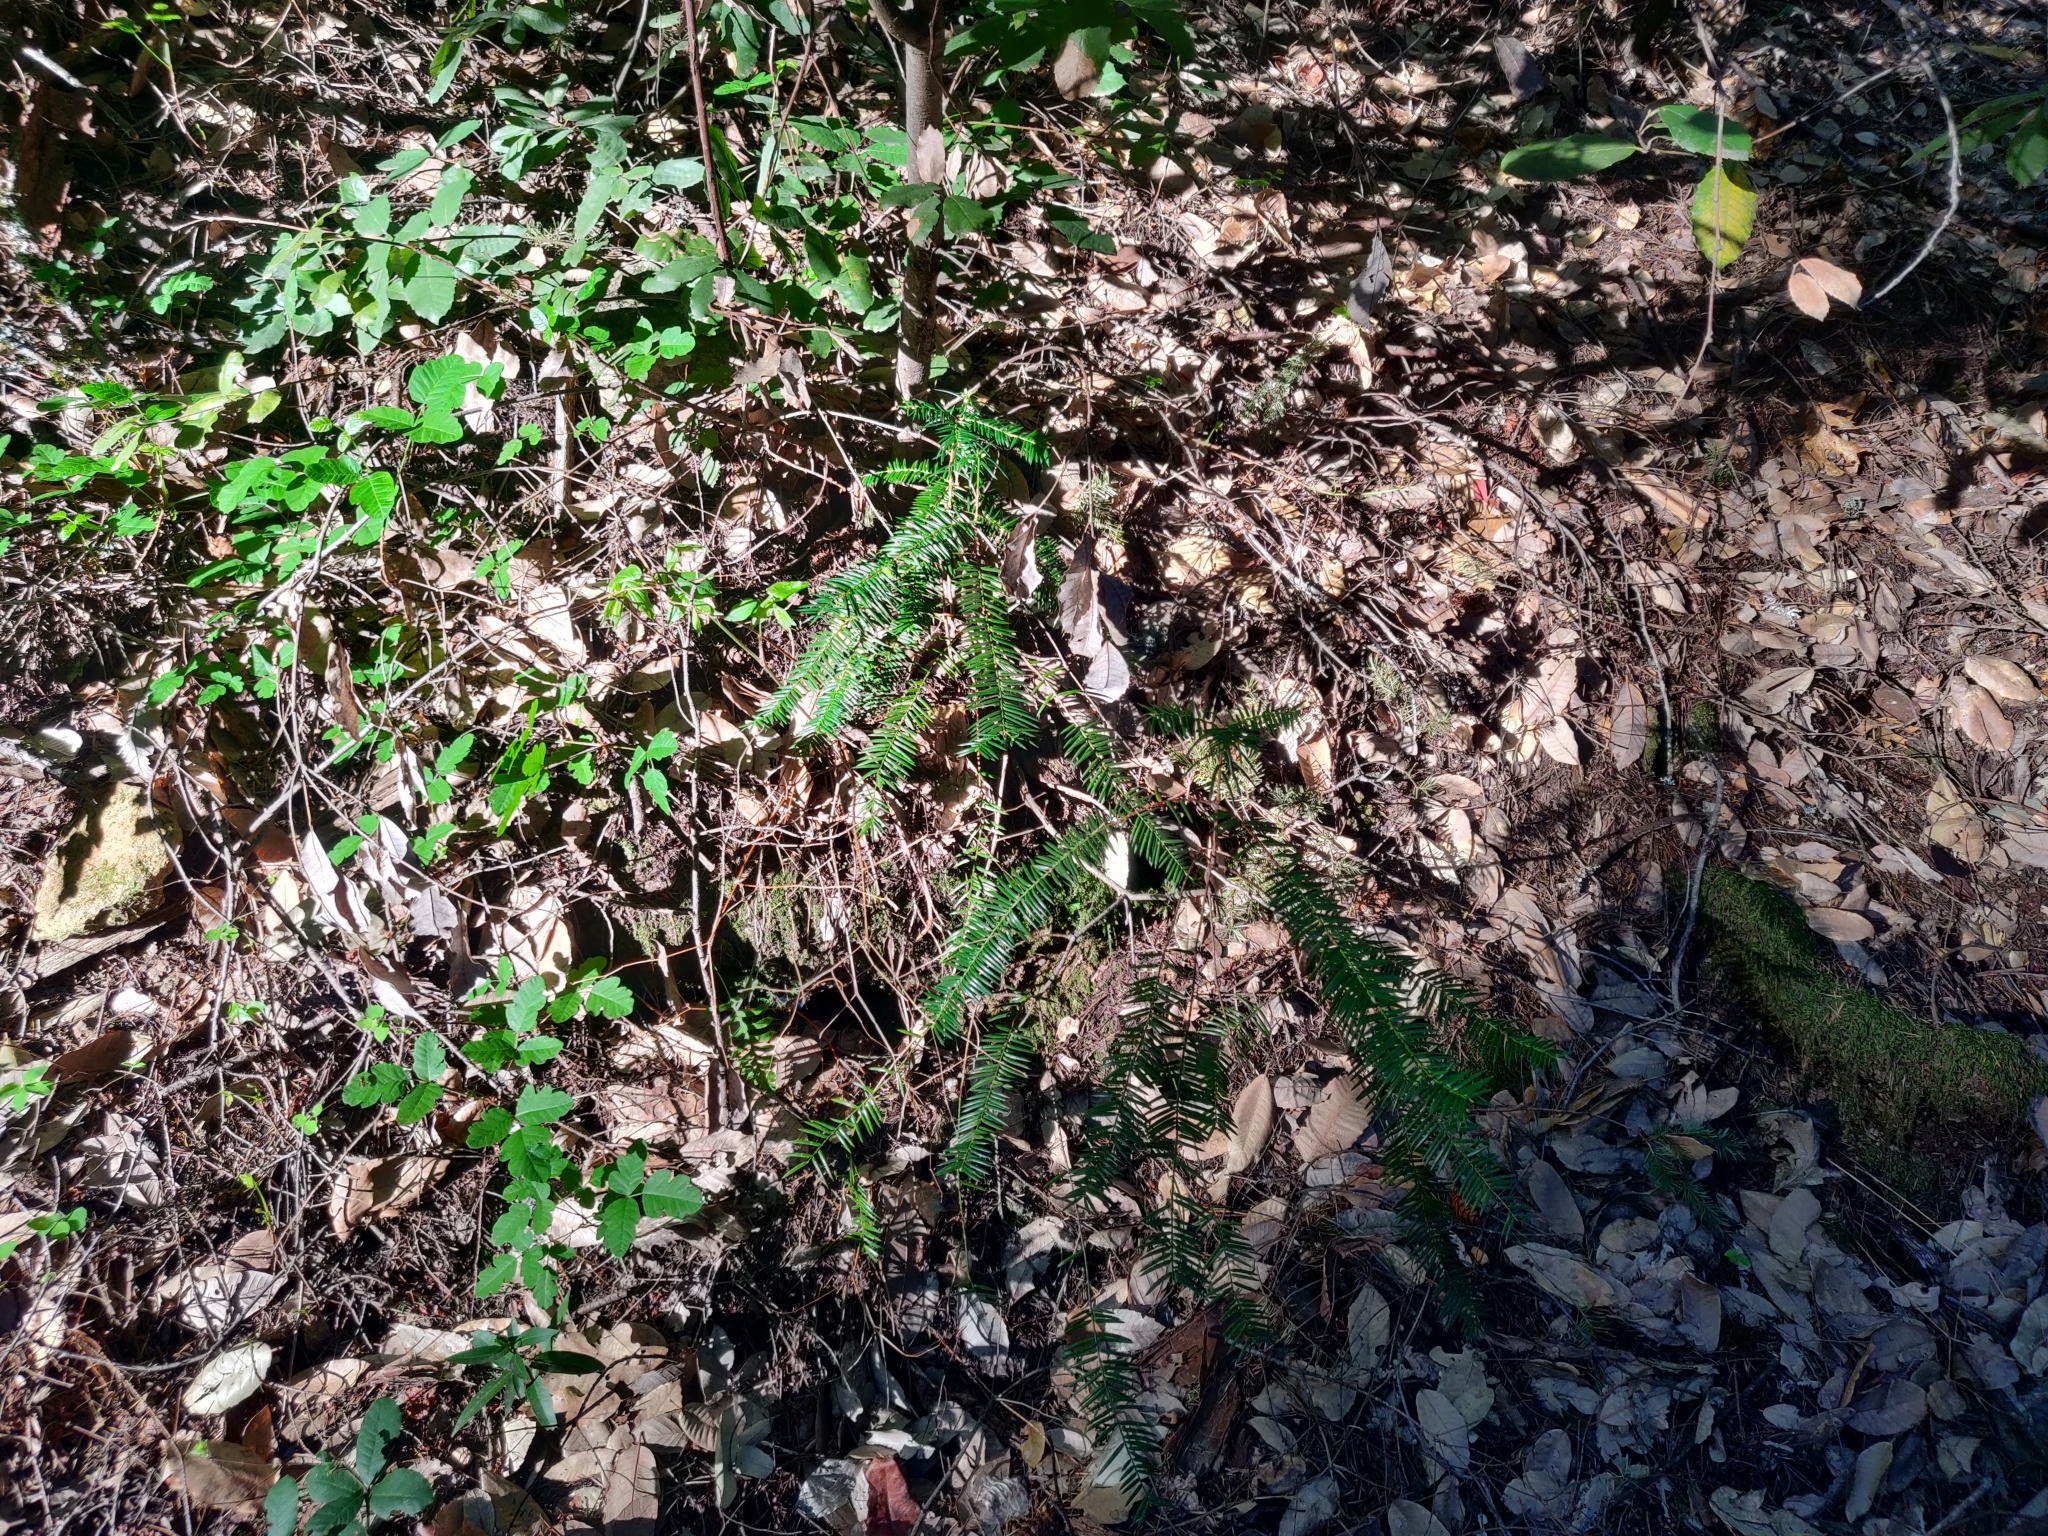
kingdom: Plantae
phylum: Tracheophyta
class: Pinopsida
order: Pinales
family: Taxaceae
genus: Torreya
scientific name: Torreya californica
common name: California torreya
